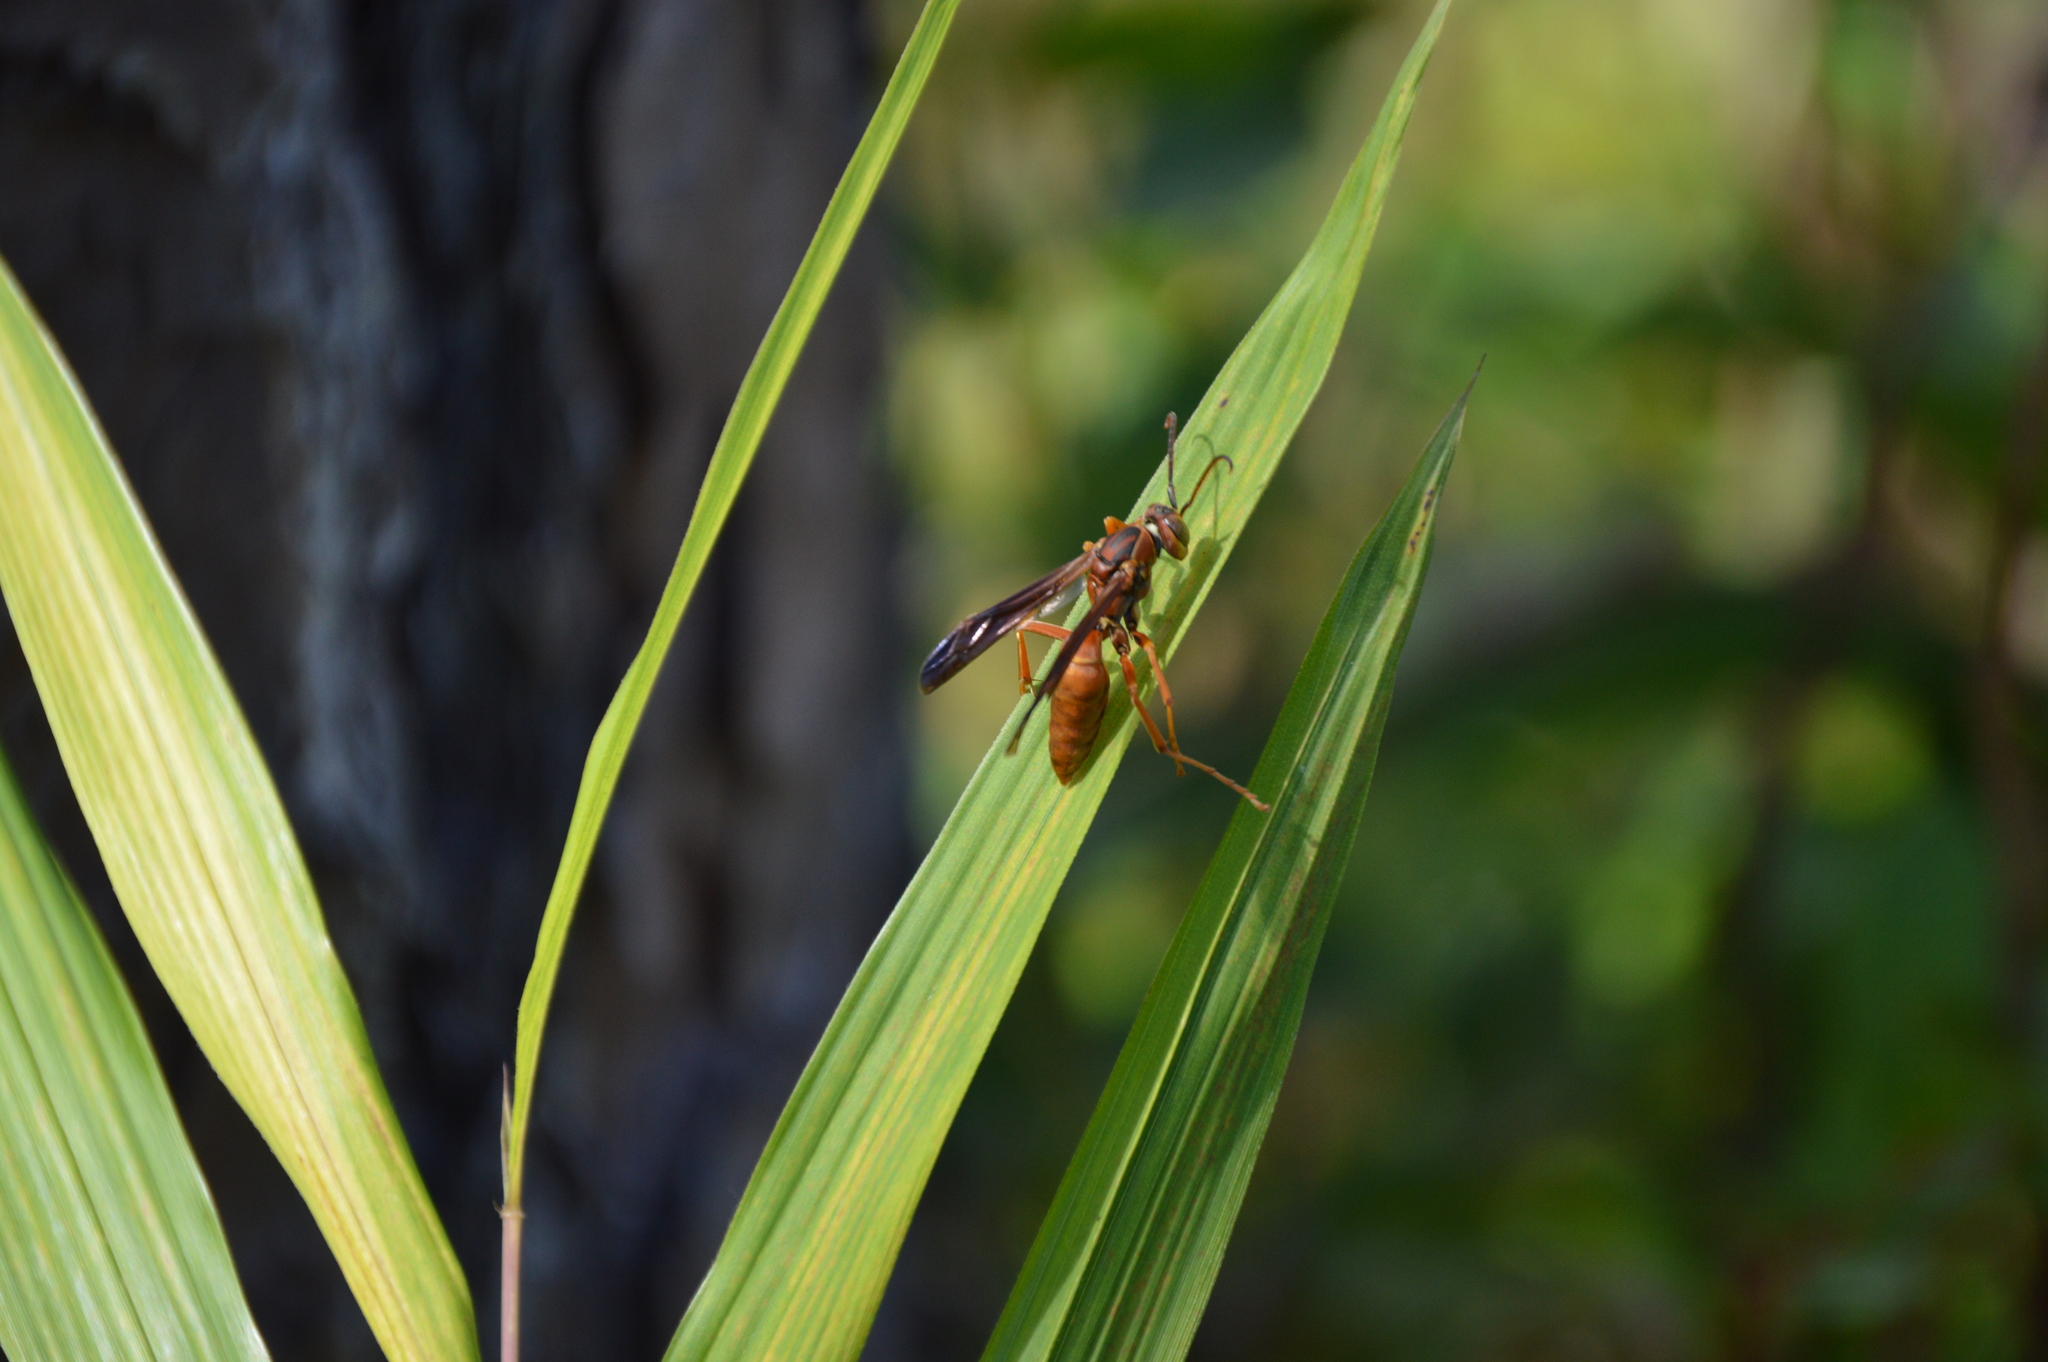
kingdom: Animalia
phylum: Arthropoda
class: Insecta
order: Hymenoptera
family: Eumenidae
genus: Polistes
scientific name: Polistes carolina
